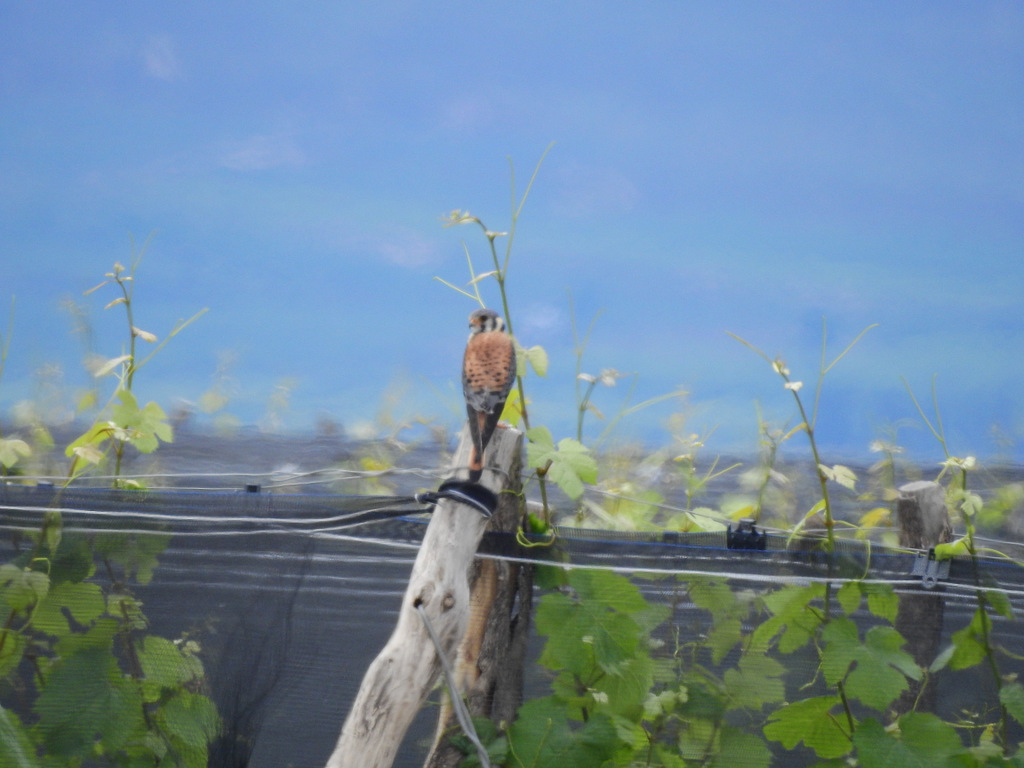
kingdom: Animalia
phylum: Chordata
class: Aves
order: Falconiformes
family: Falconidae
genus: Falco
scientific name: Falco sparverius
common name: American kestrel
